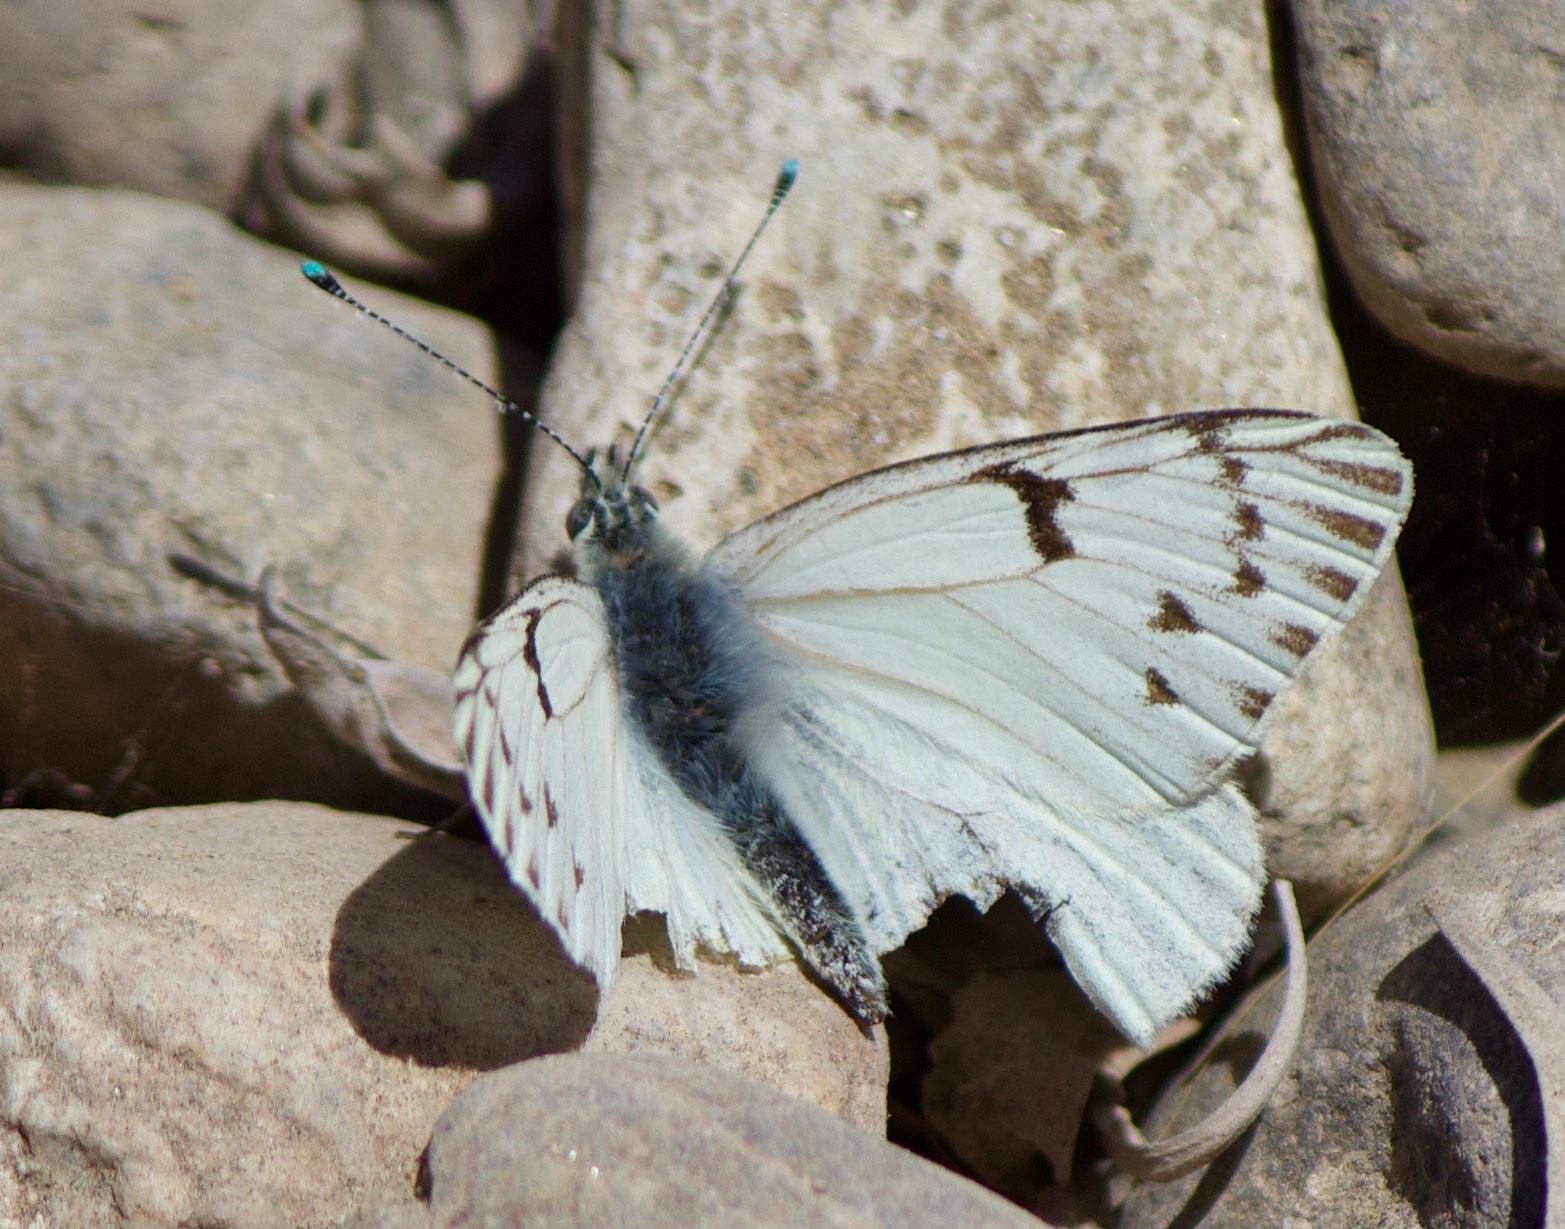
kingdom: Animalia
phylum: Arthropoda
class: Insecta
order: Lepidoptera
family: Pieridae
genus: Tatochila
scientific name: Tatochila mercedis
